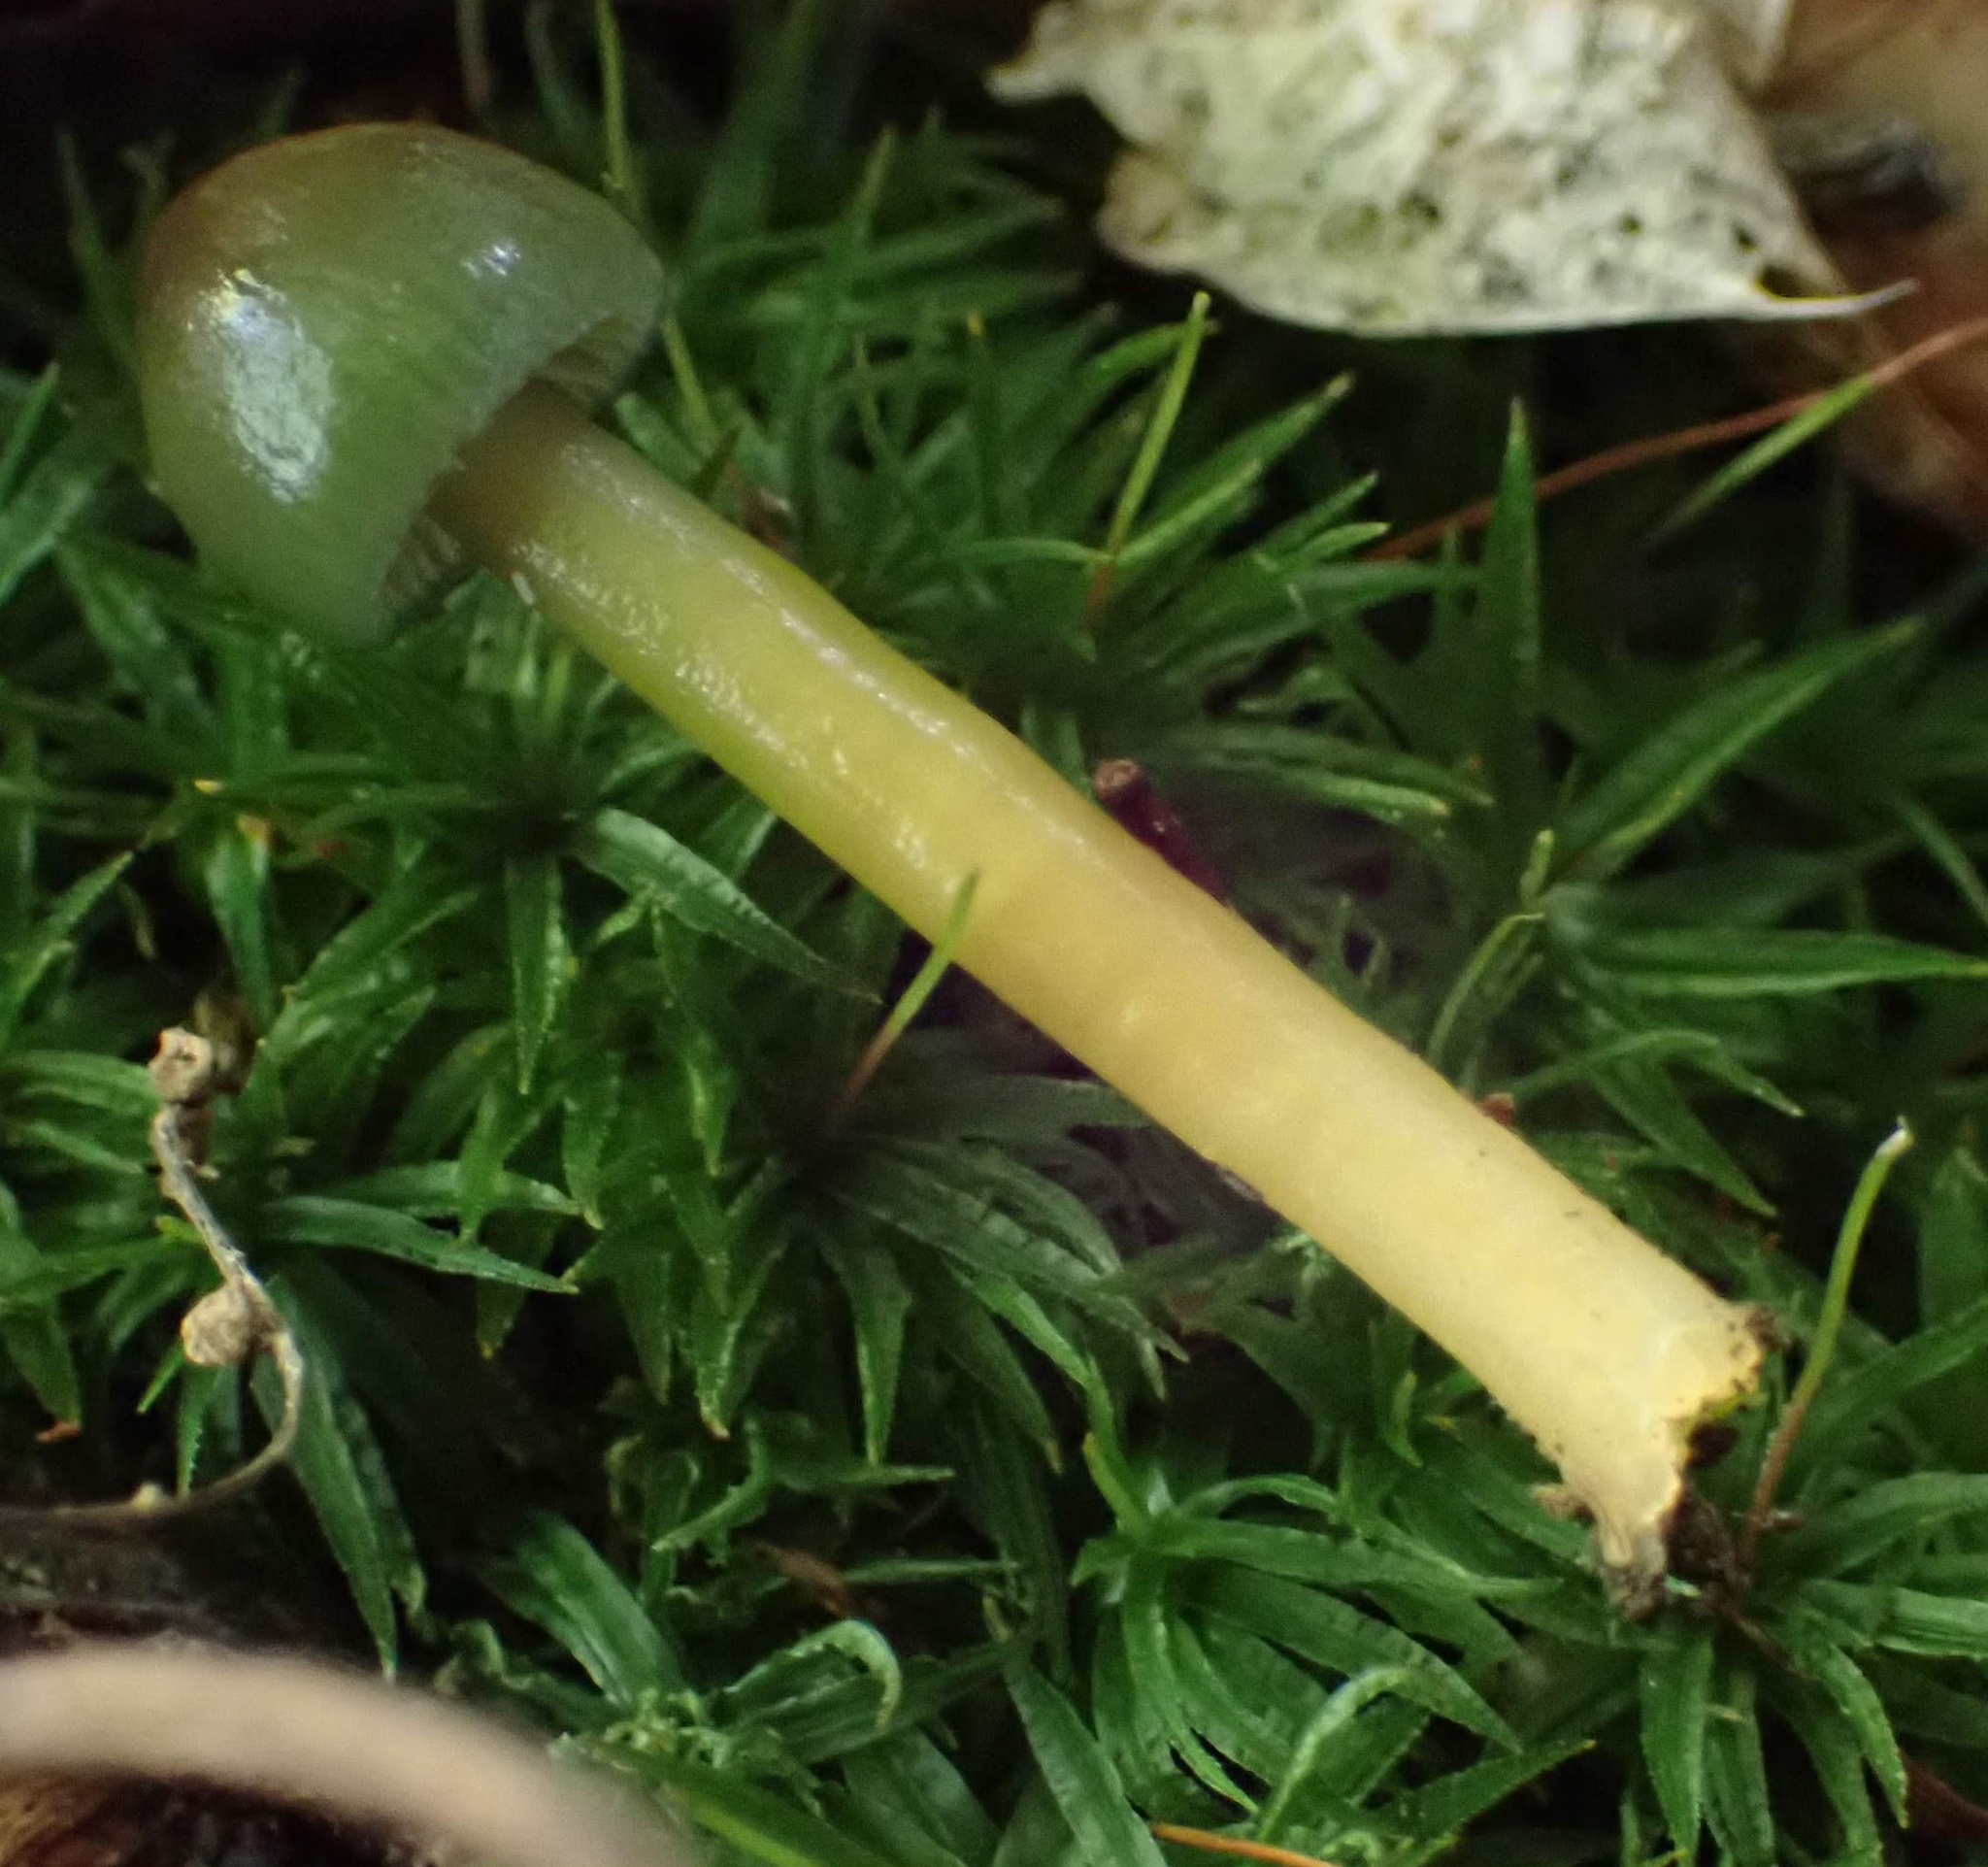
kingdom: Fungi
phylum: Basidiomycota
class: Agaricomycetes
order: Agaricales
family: Hygrophoraceae
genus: Gliophorus
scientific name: Gliophorus psittacinus
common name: Parrot wax-cap
